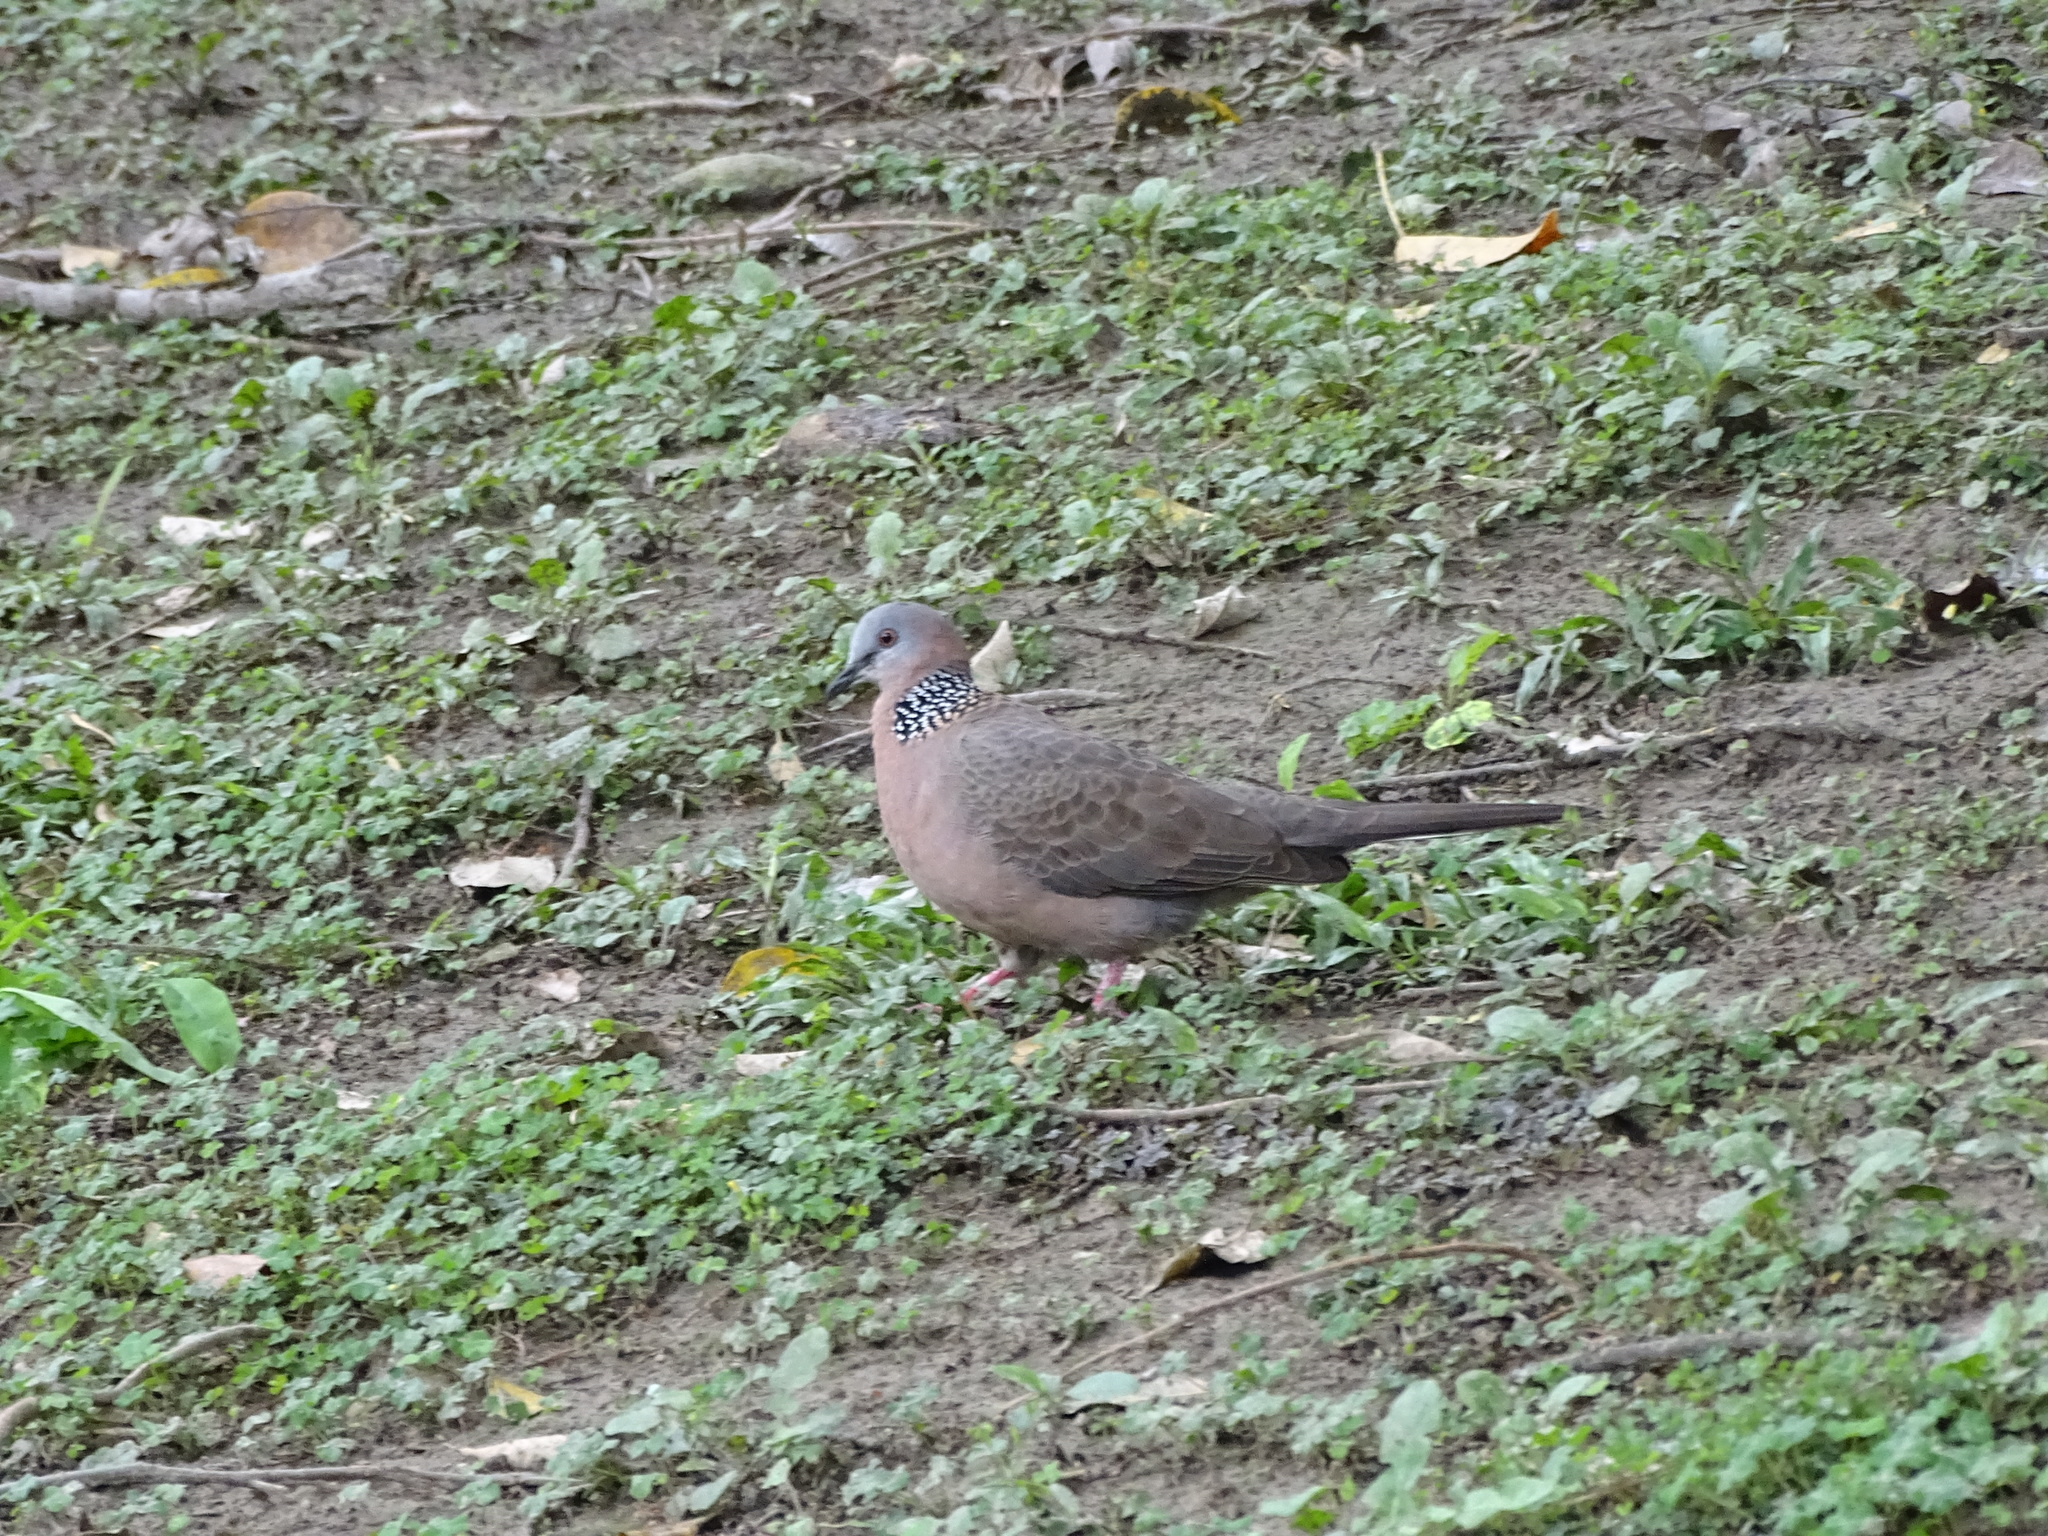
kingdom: Animalia
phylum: Chordata
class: Aves
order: Columbiformes
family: Columbidae
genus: Spilopelia
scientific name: Spilopelia chinensis
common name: Spotted dove
